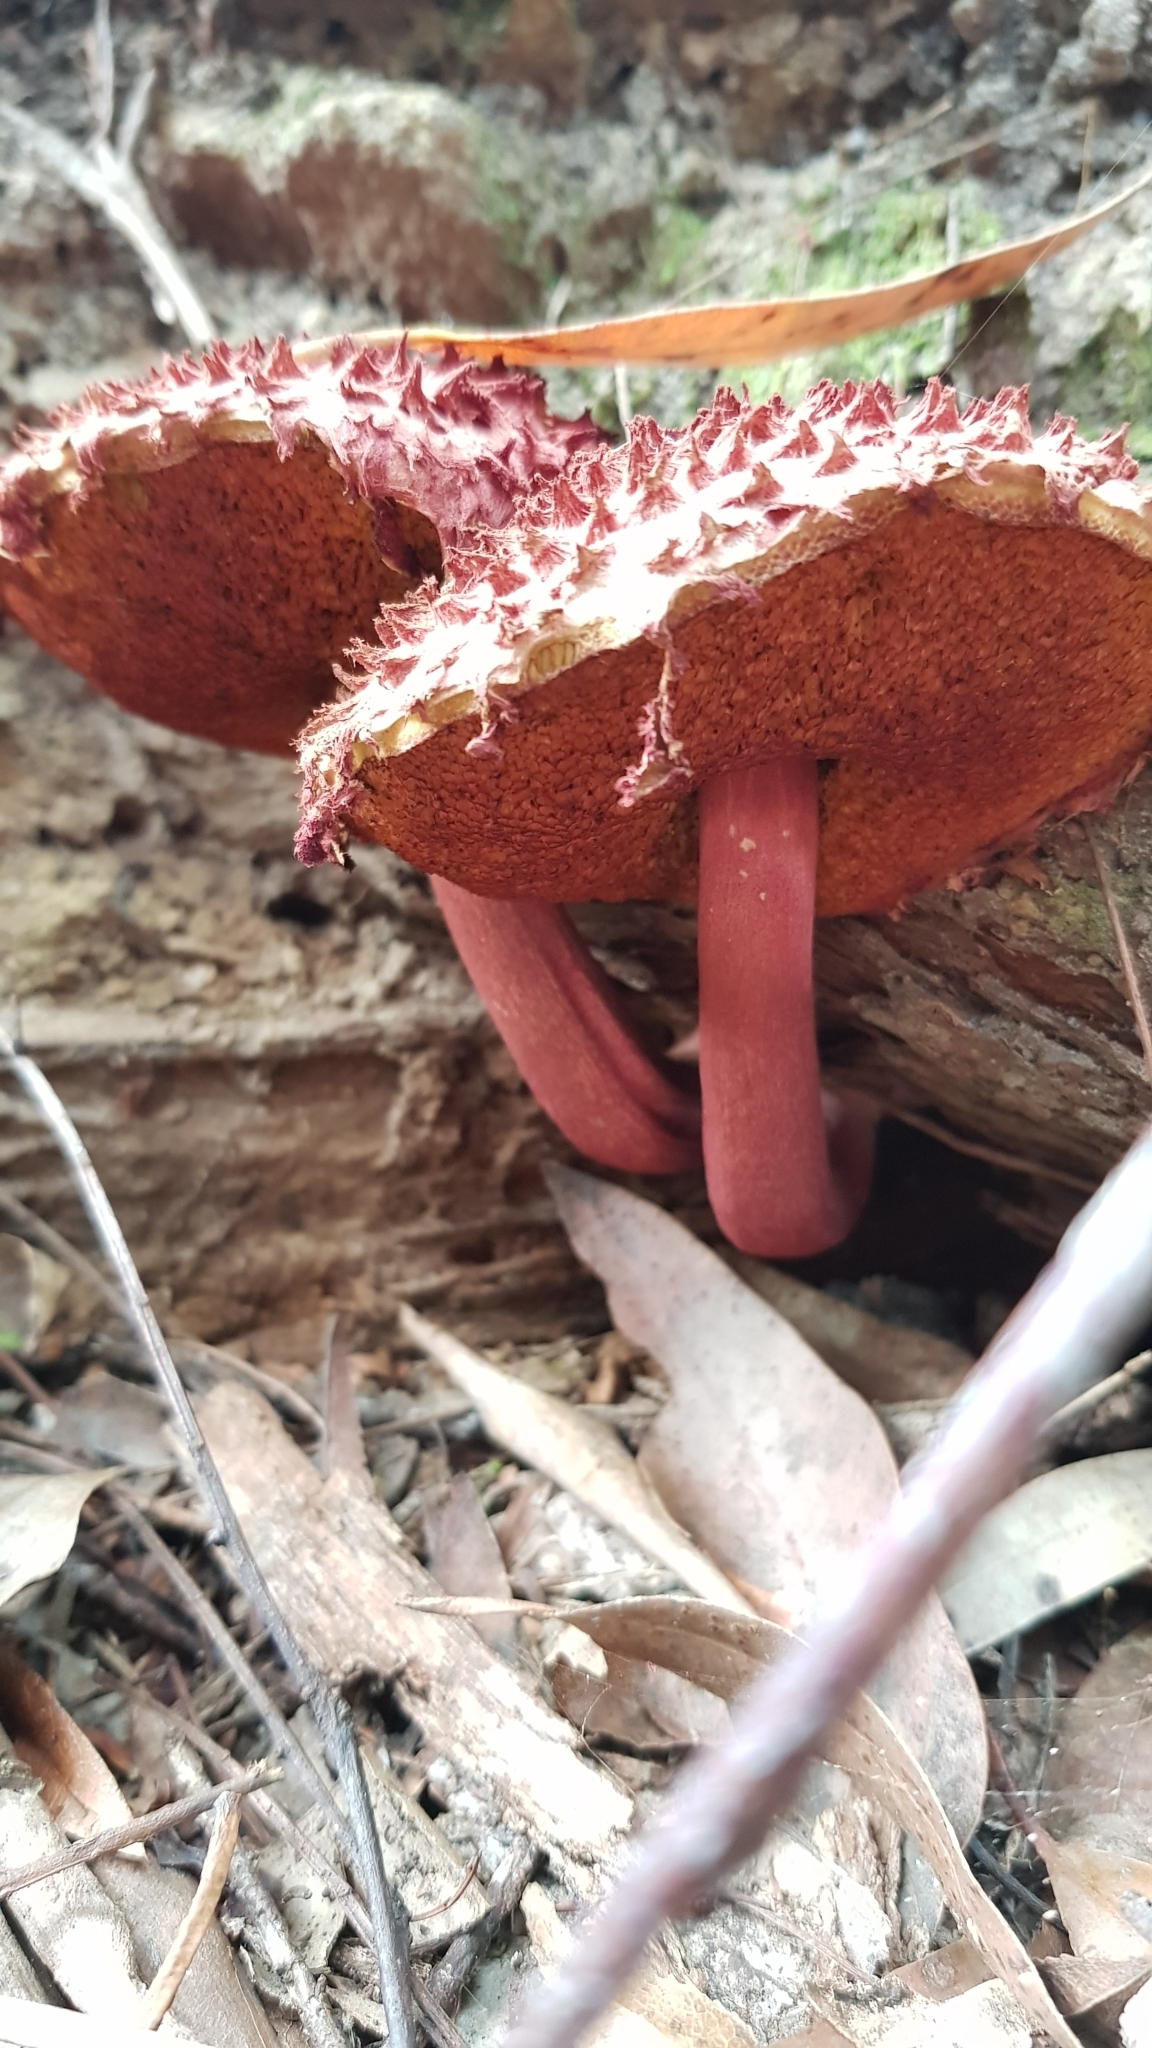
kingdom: Fungi
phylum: Basidiomycota
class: Agaricomycetes
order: Boletales
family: Boletaceae
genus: Boletellus
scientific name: Boletellus emodensis
